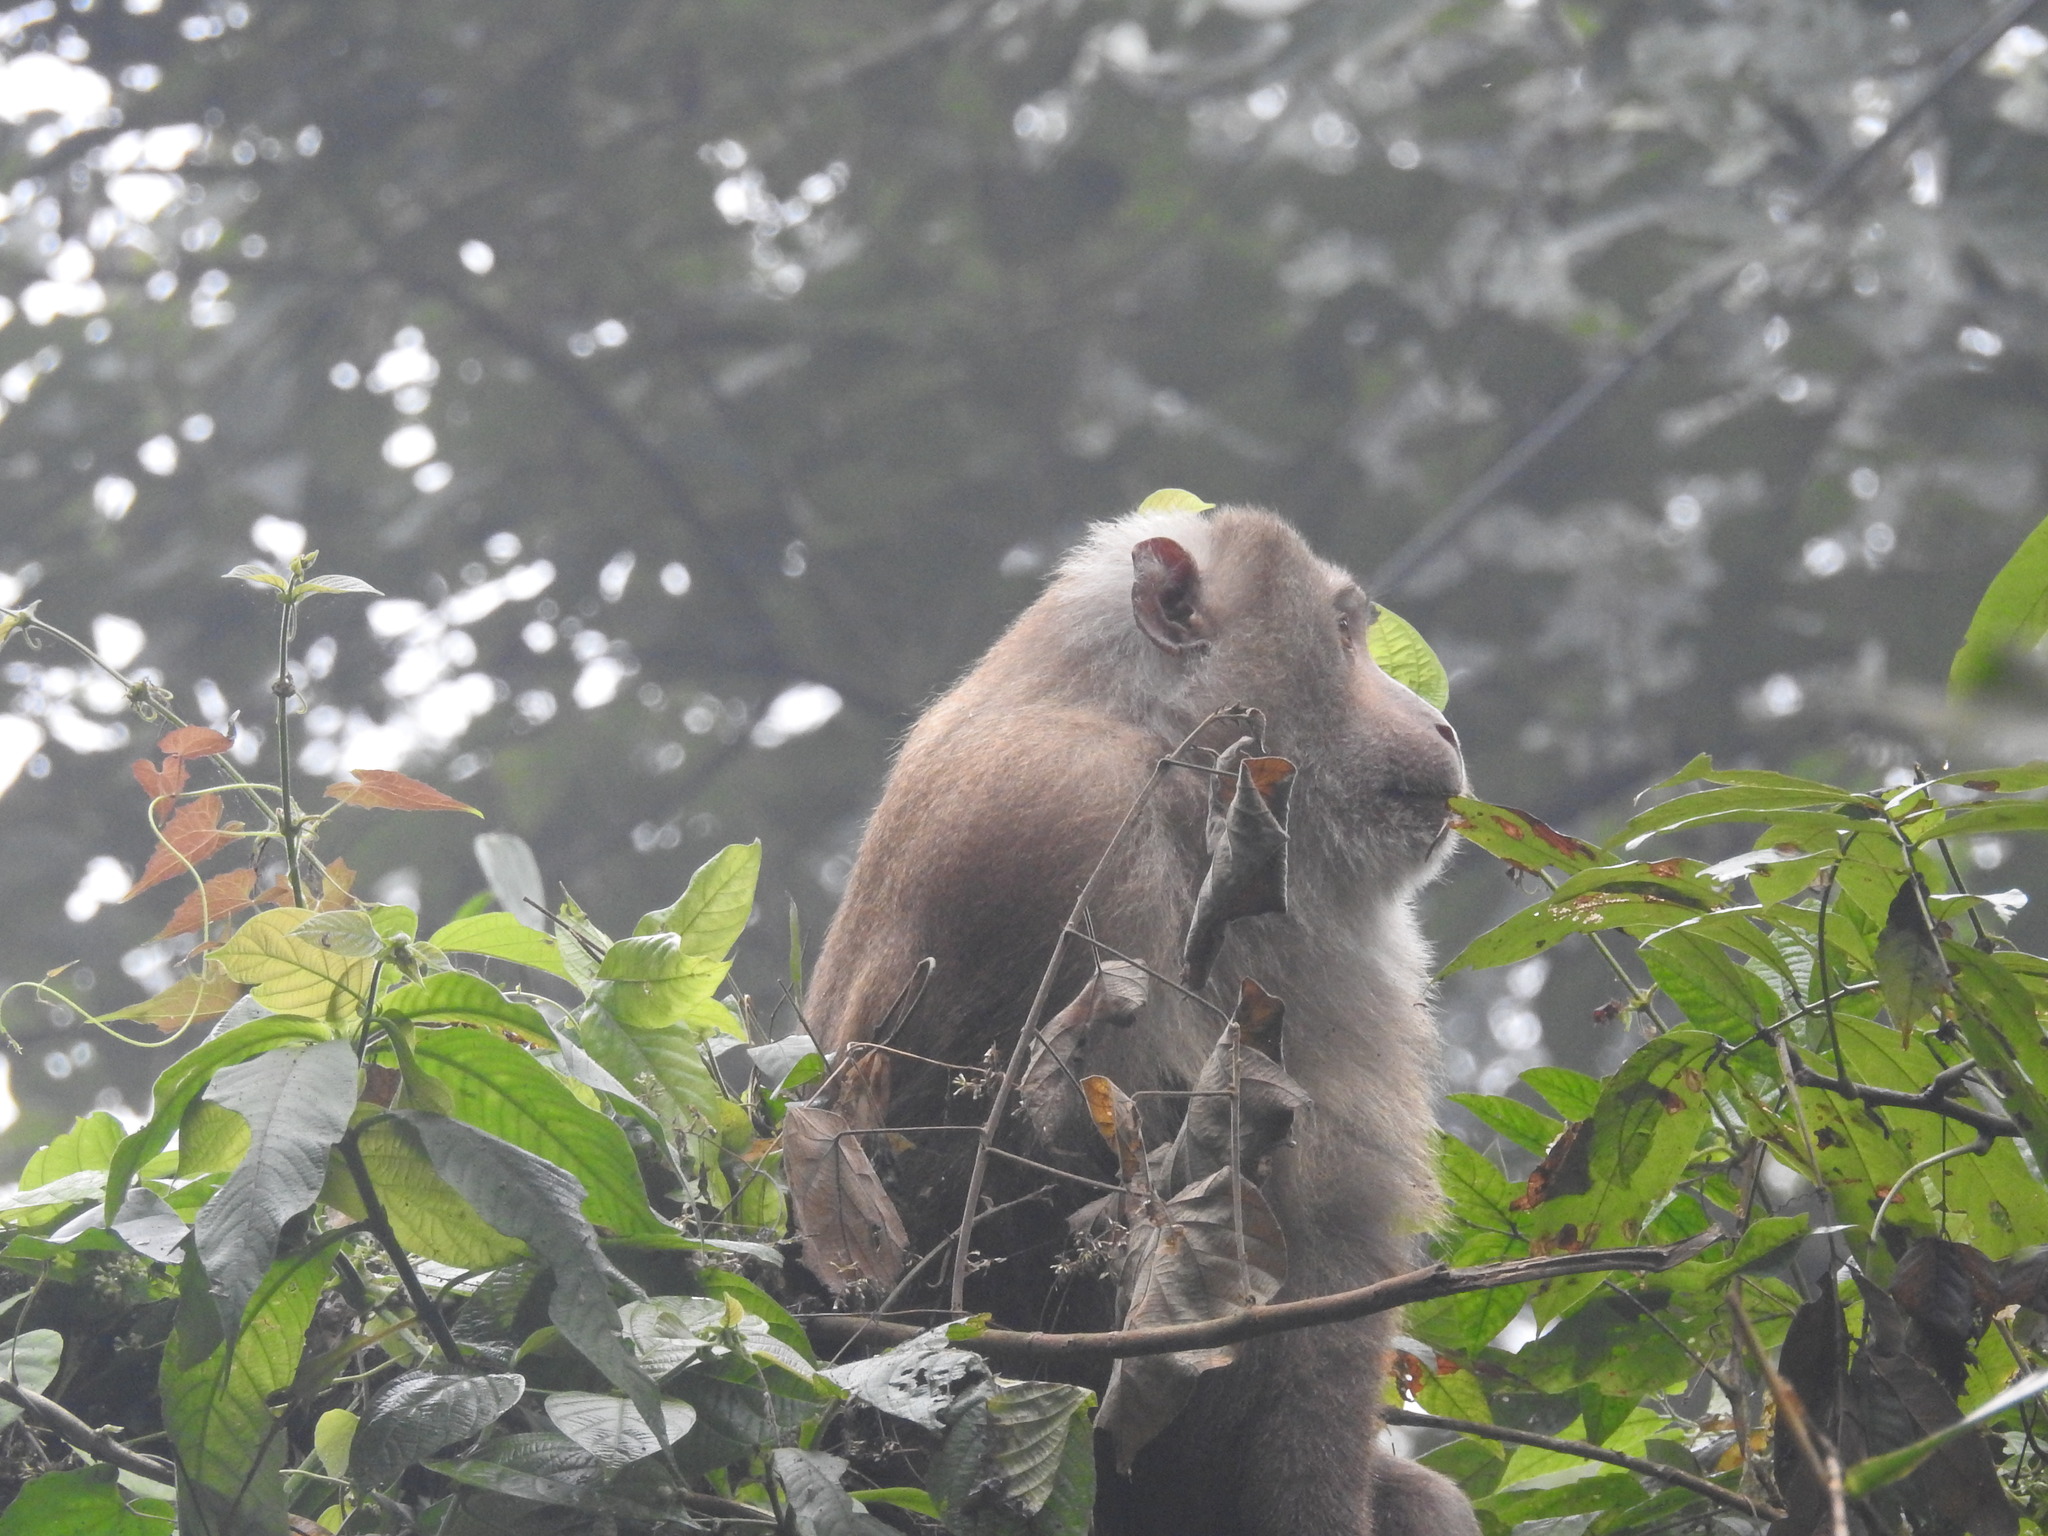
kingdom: Animalia
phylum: Chordata
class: Mammalia
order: Primates
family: Cercopithecidae
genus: Macaca
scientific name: Macaca leonina
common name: Northern pig-tailed macaque
